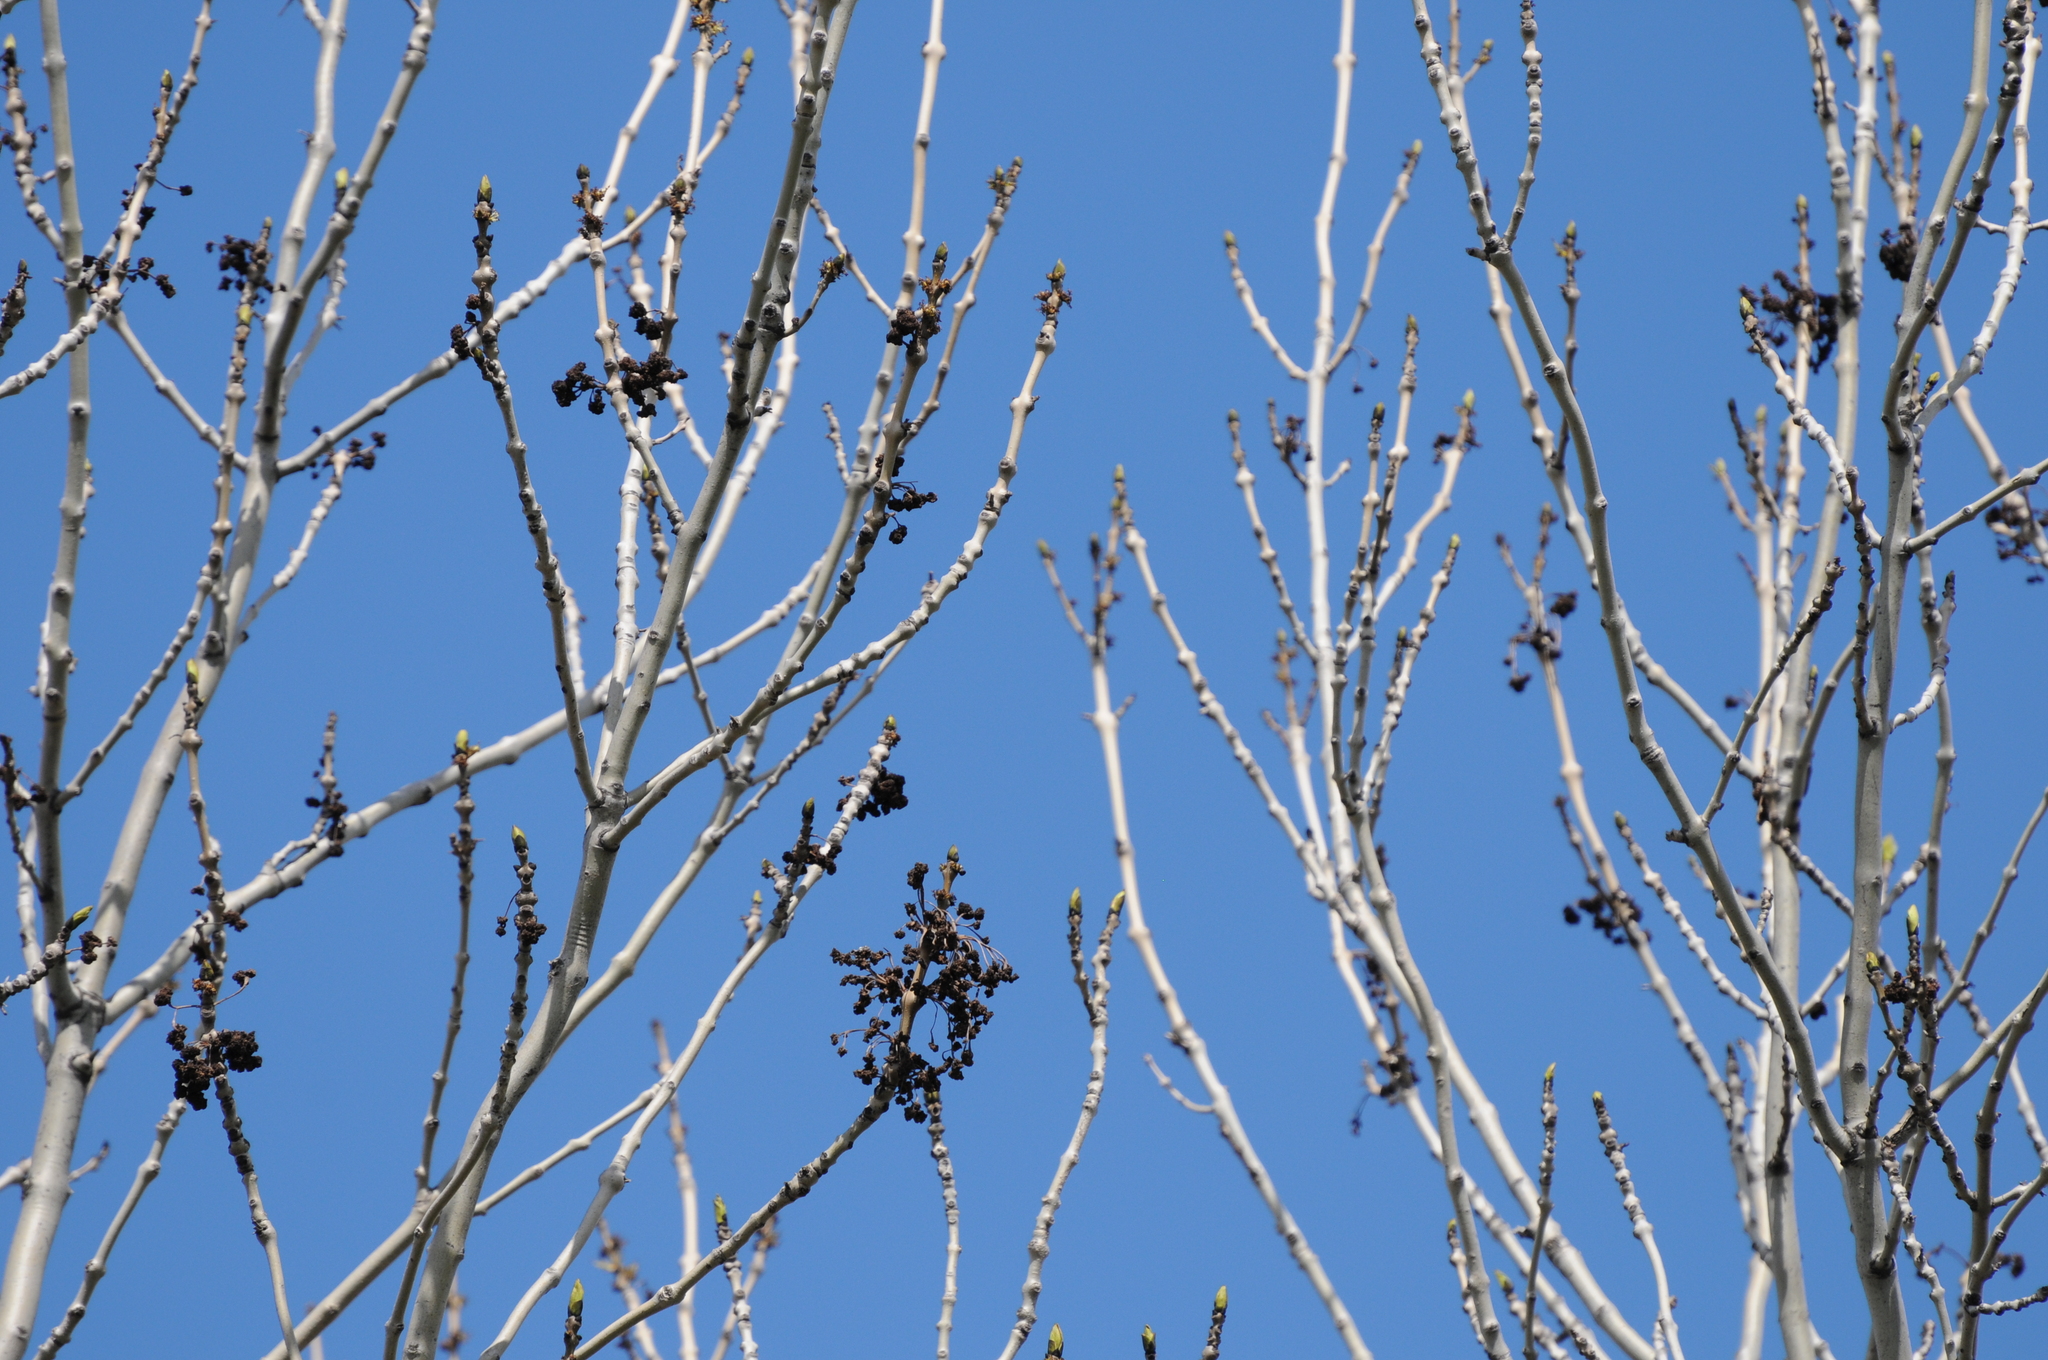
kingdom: Plantae
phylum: Tracheophyta
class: Magnoliopsida
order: Lamiales
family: Oleaceae
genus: Fraxinus
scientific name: Fraxinus excelsior
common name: European ash
